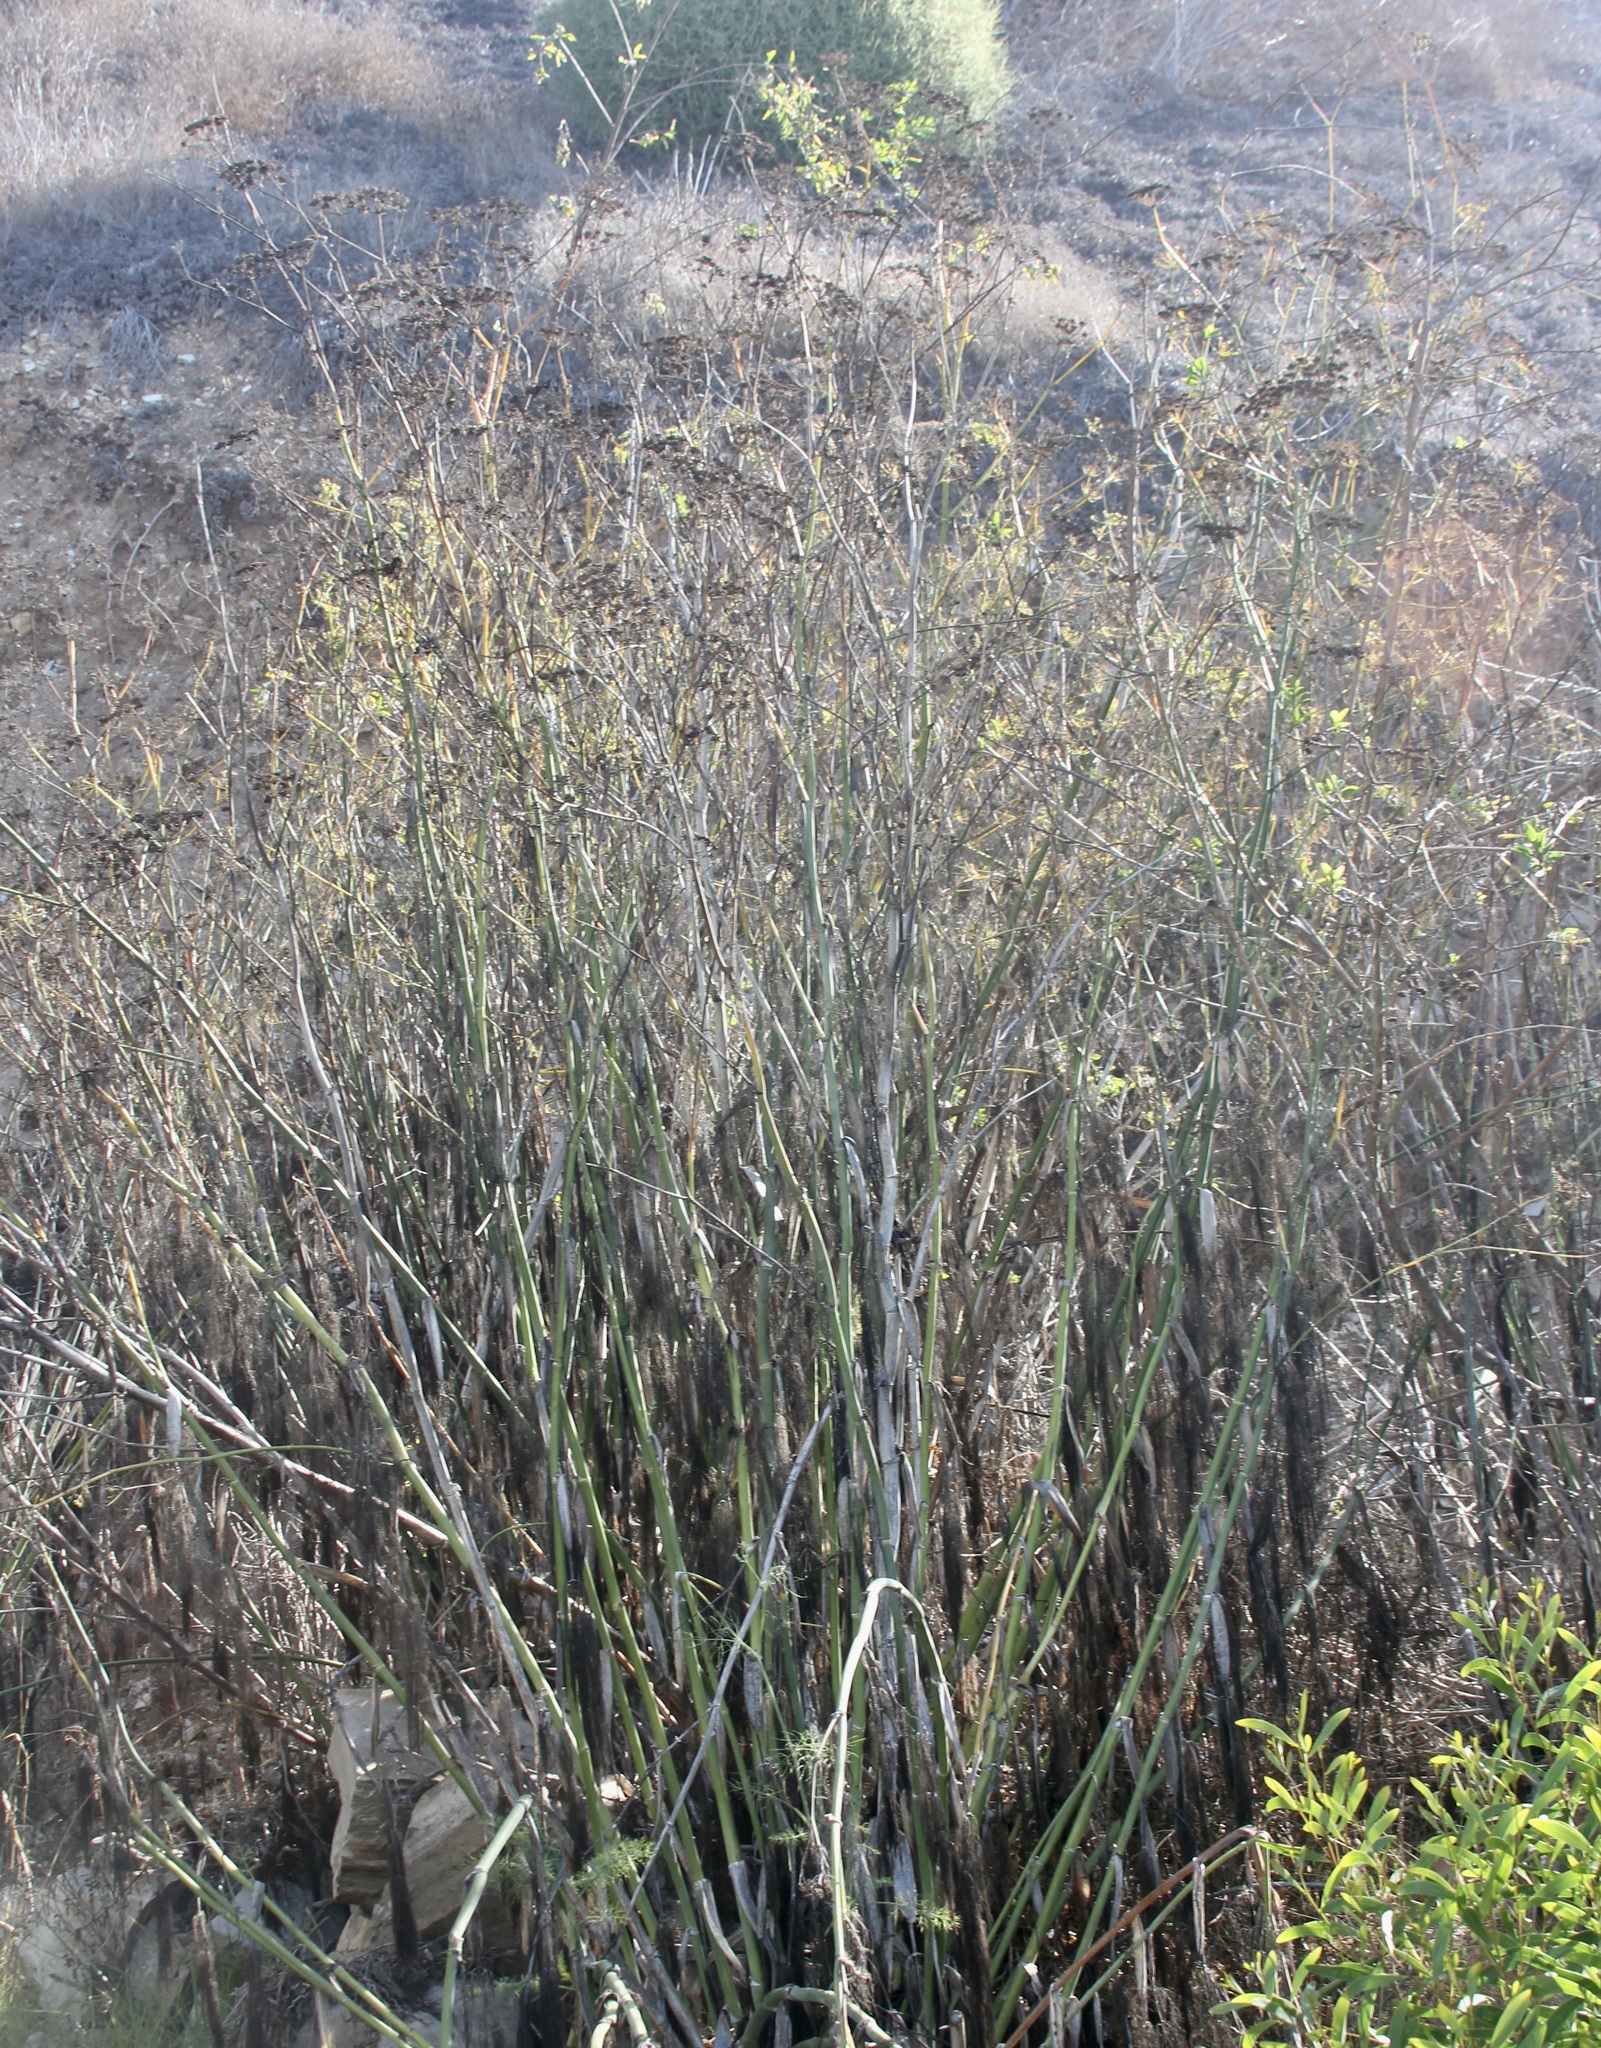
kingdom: Plantae
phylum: Tracheophyta
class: Magnoliopsida
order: Apiales
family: Apiaceae
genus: Foeniculum
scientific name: Foeniculum vulgare
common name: Fennel
